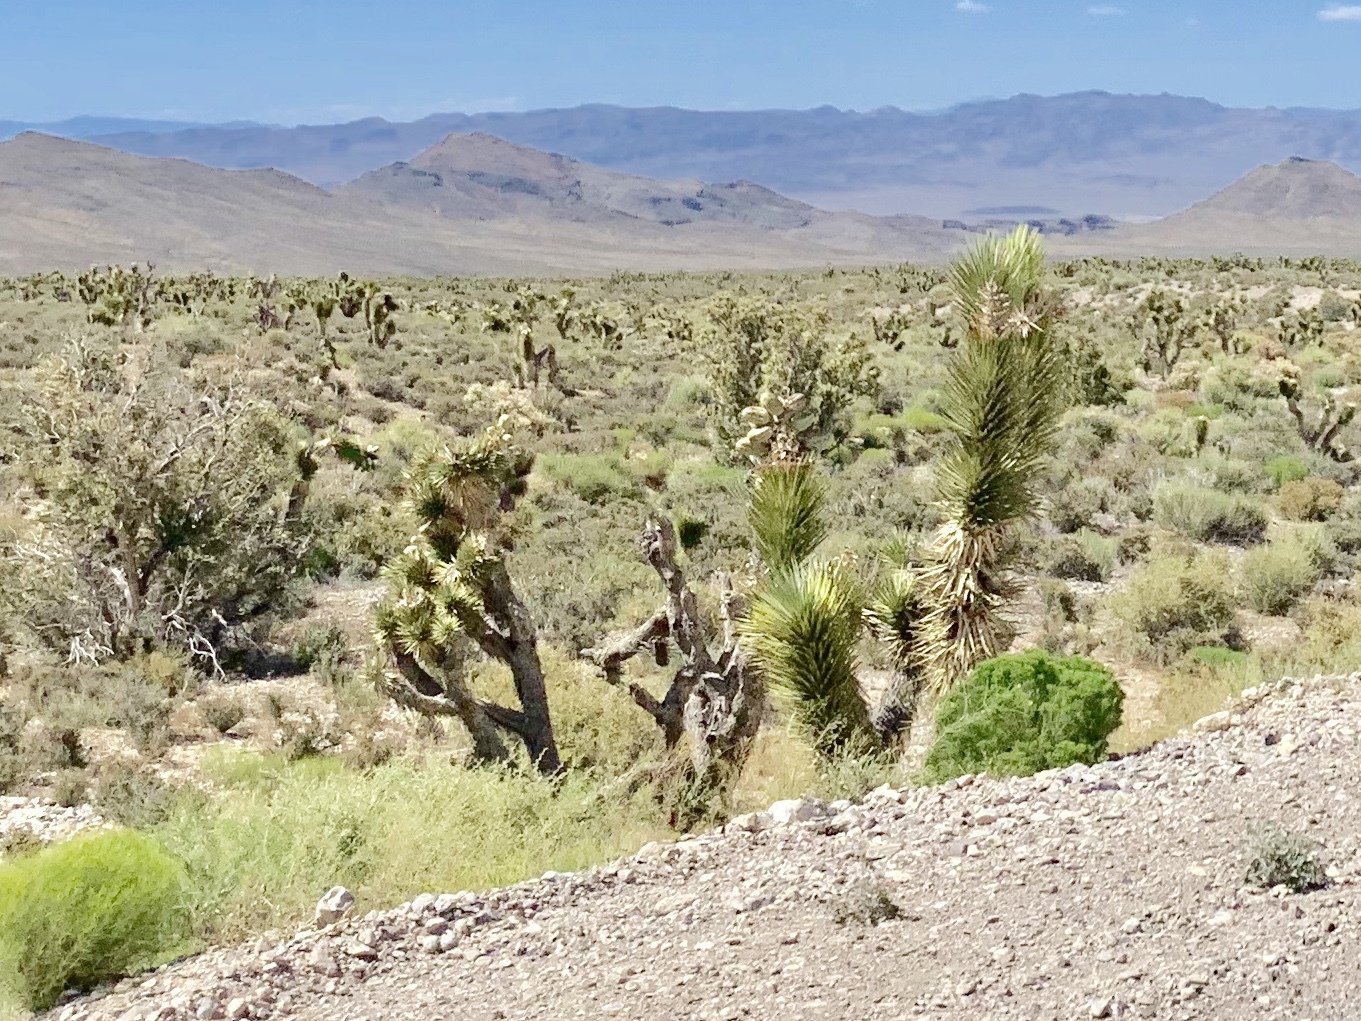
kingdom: Plantae
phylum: Tracheophyta
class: Liliopsida
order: Asparagales
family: Asparagaceae
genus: Yucca
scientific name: Yucca brevifolia
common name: Joshua tree
